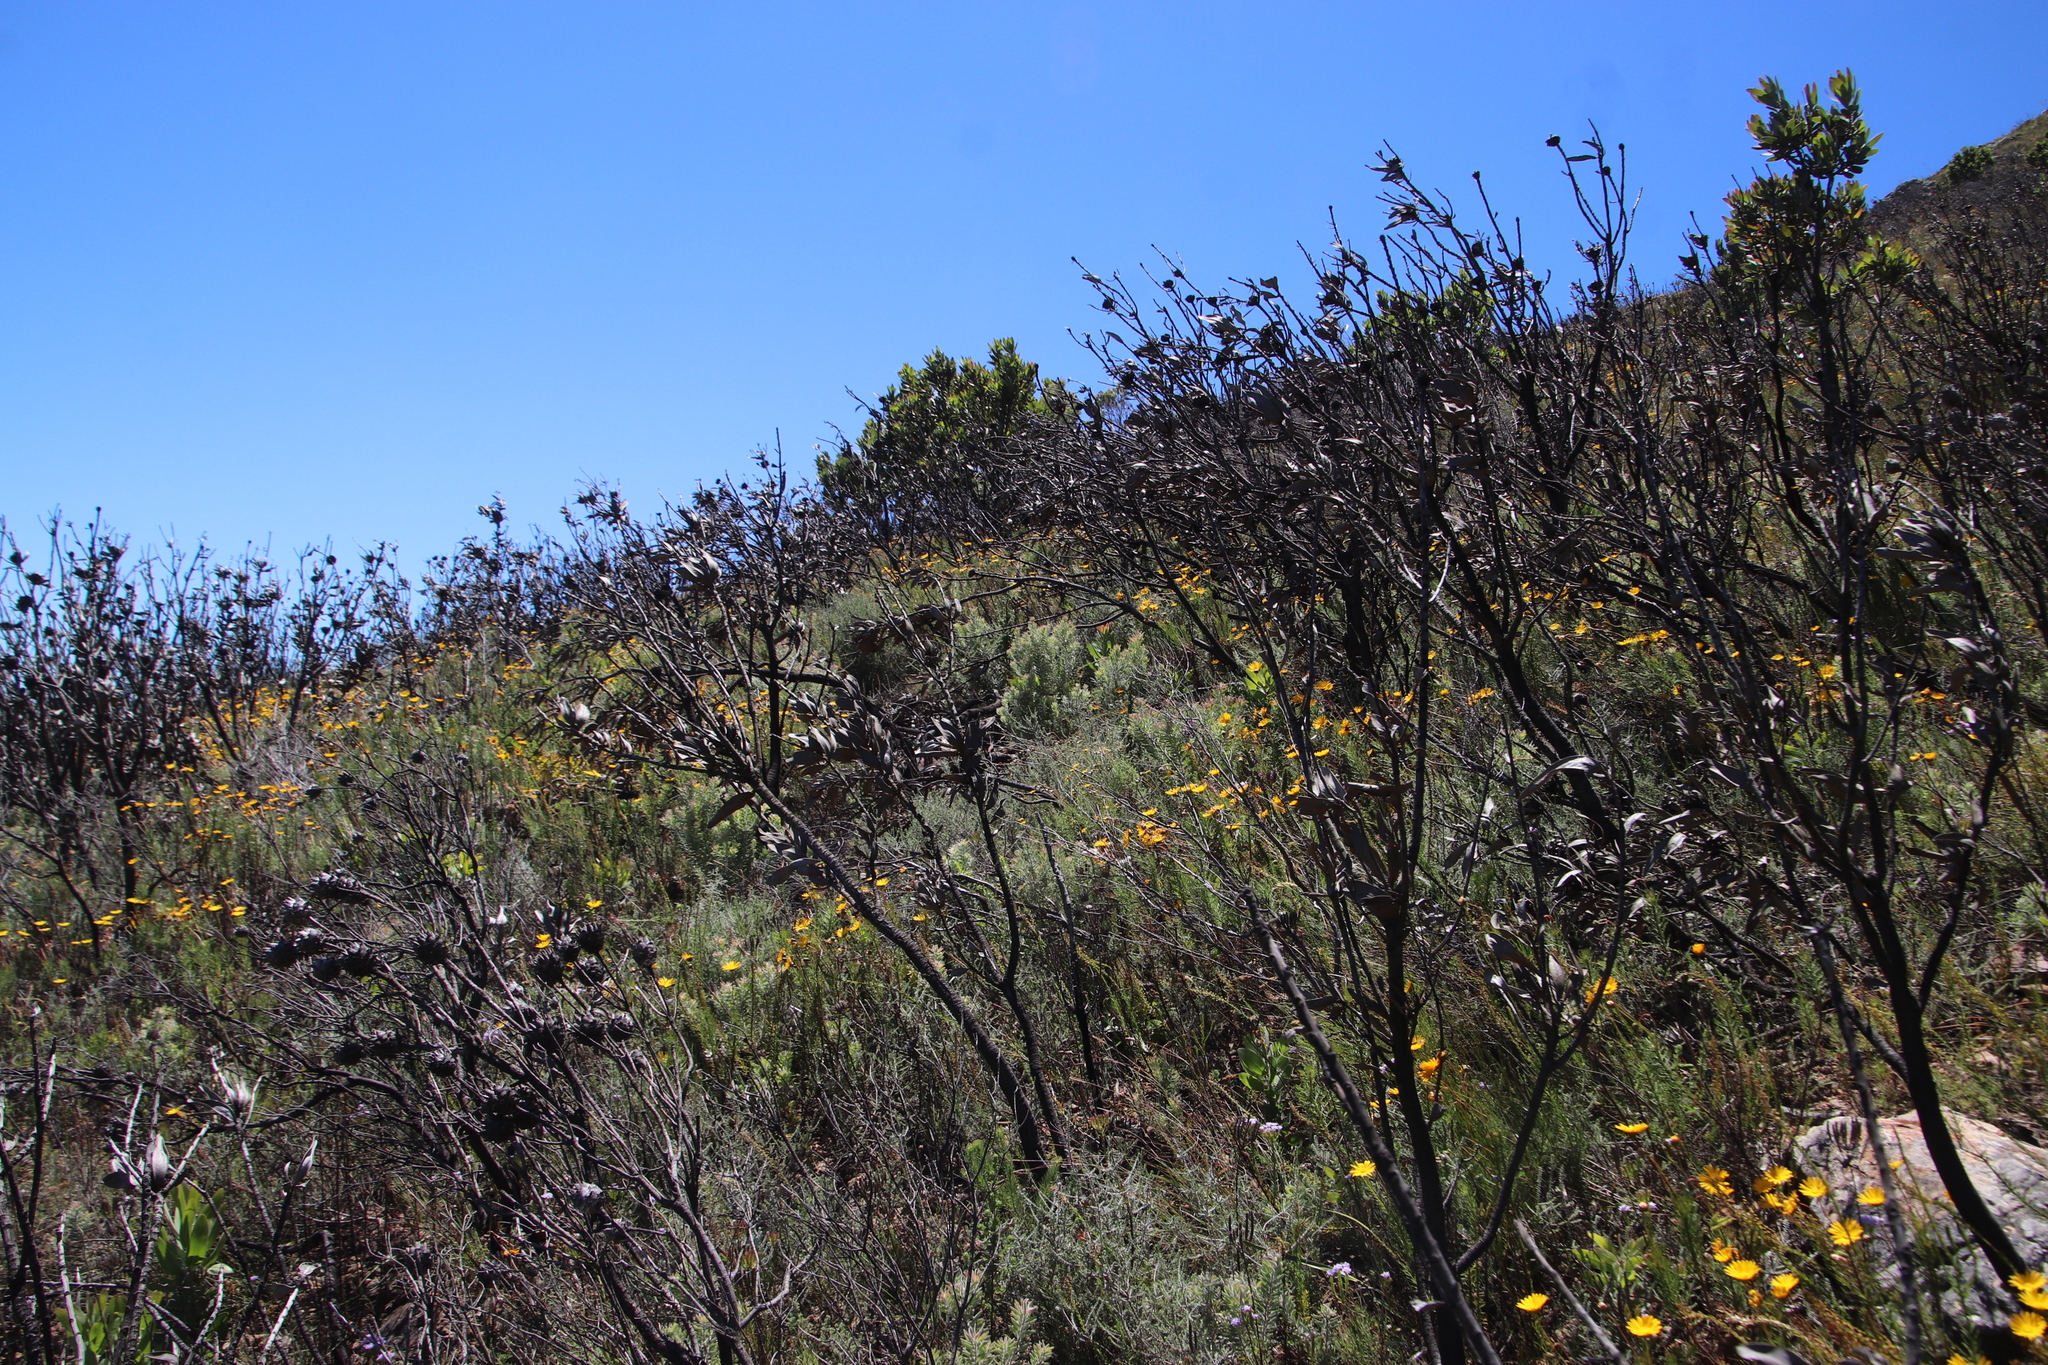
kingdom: Plantae
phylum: Tracheophyta
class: Magnoliopsida
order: Proteales
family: Proteaceae
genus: Protea
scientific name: Protea laurifolia
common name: Grey-leaf sugarbsh
